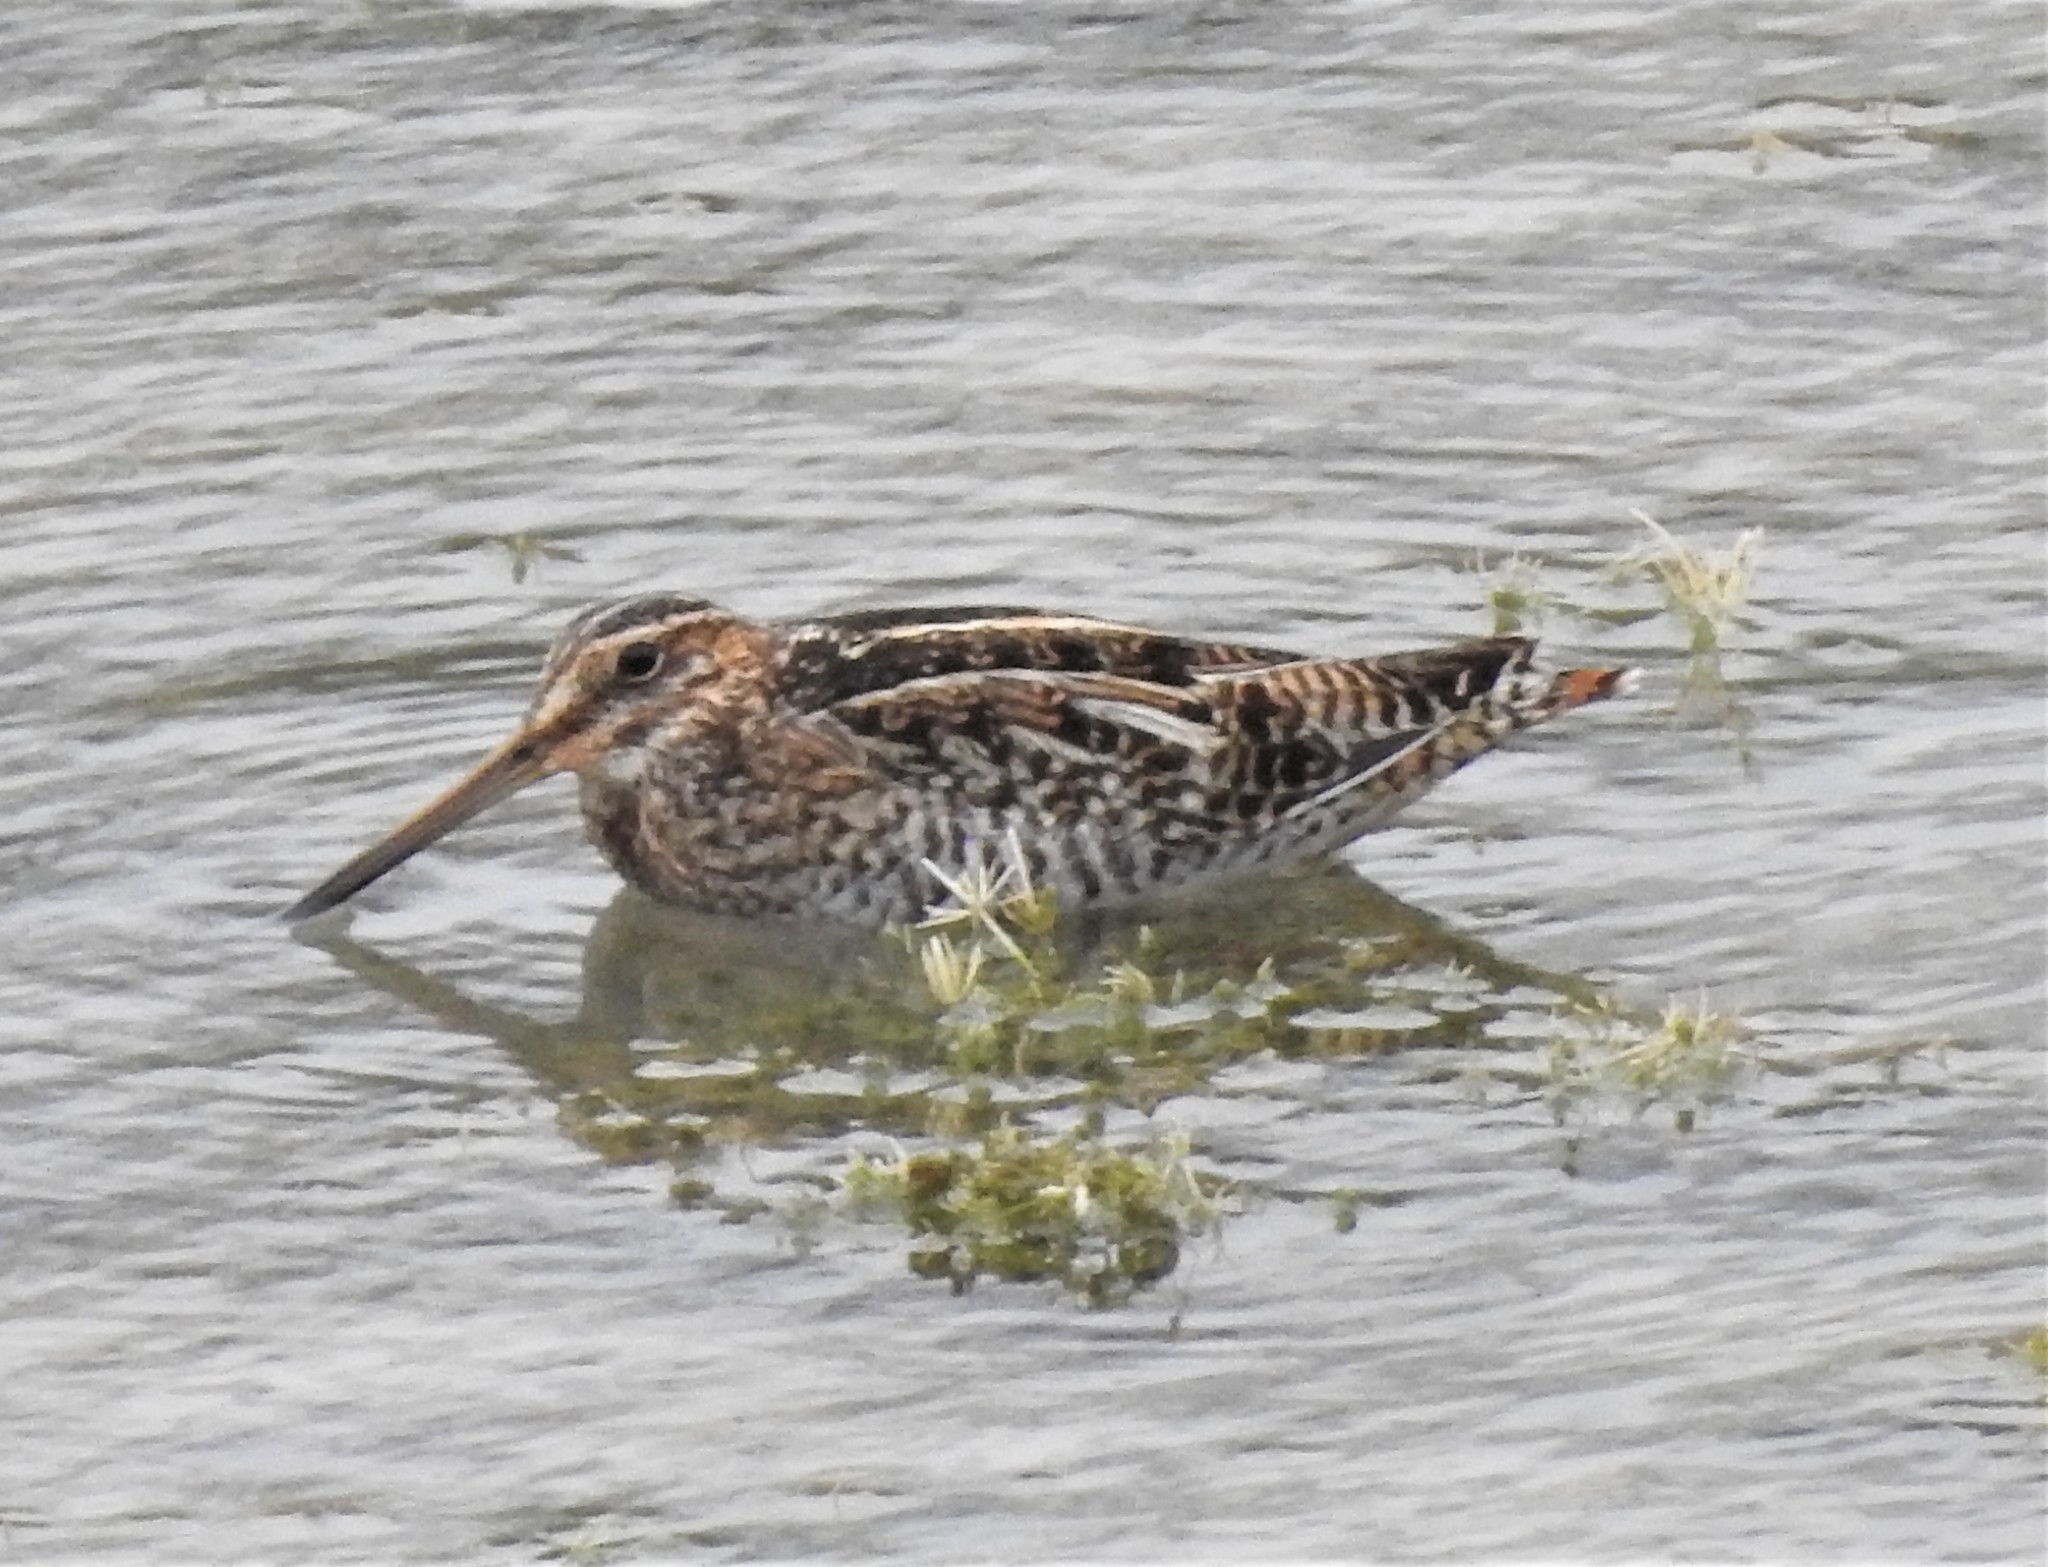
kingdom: Animalia
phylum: Chordata
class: Aves
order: Charadriiformes
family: Scolopacidae
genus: Gallinago
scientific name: Gallinago delicata
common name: Wilson's snipe
